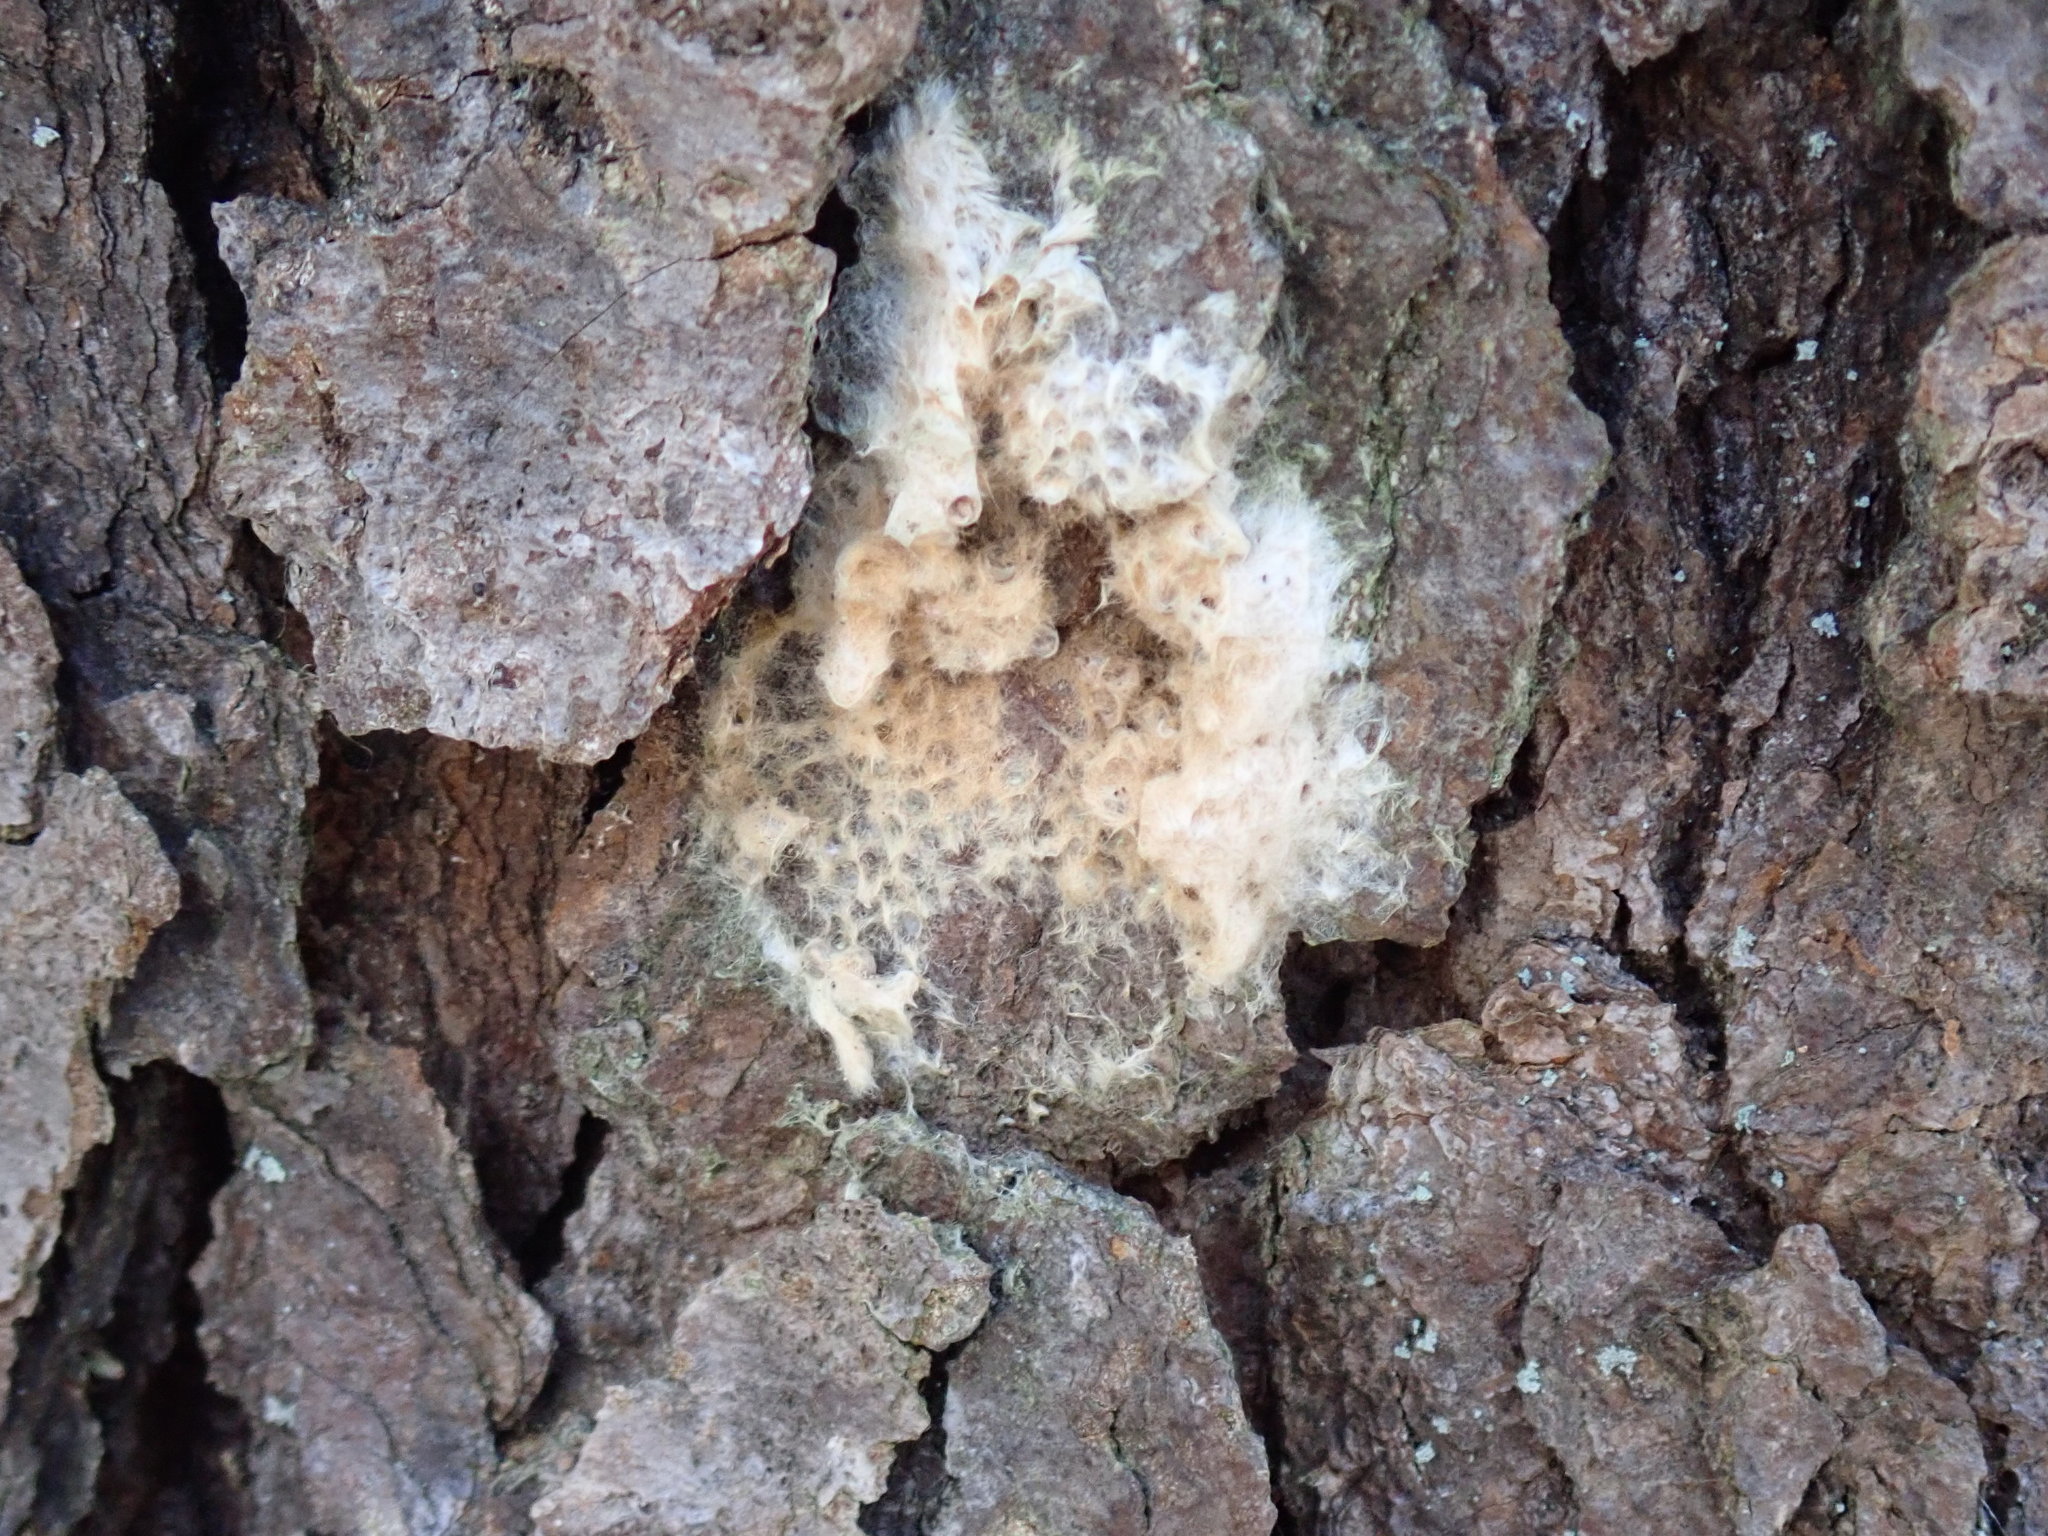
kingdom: Animalia
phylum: Arthropoda
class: Insecta
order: Lepidoptera
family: Erebidae
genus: Lymantria
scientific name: Lymantria dispar
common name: Gypsy moth
